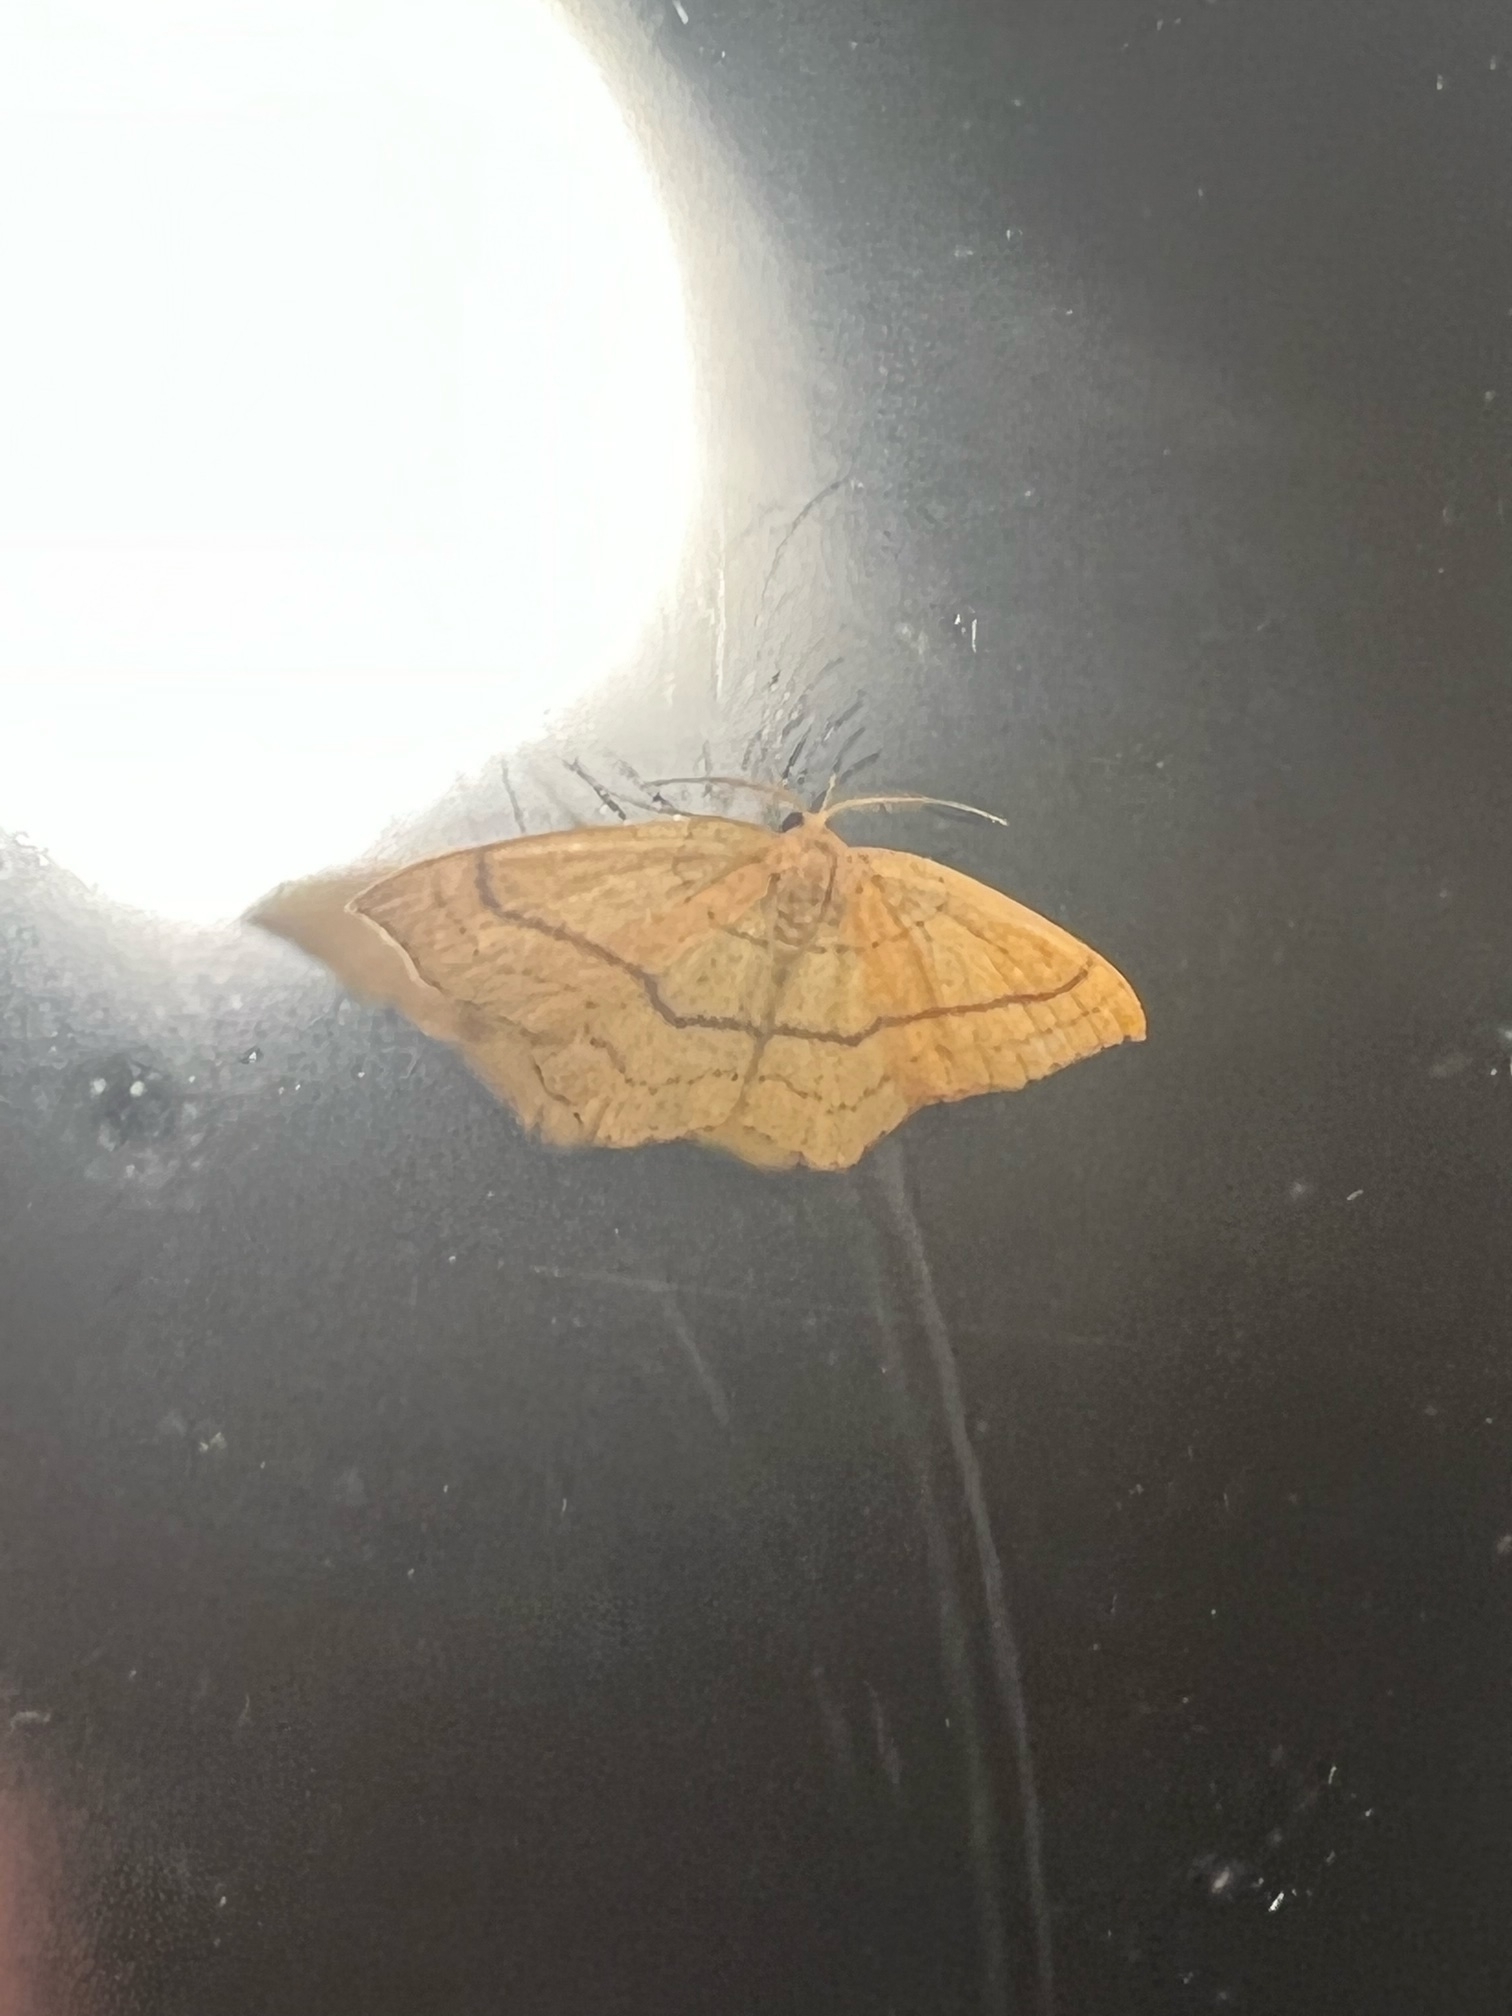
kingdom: Animalia
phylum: Arthropoda
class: Insecta
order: Lepidoptera
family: Geometridae
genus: Cyclophora
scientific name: Cyclophora linearia
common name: Clay triple-lines
